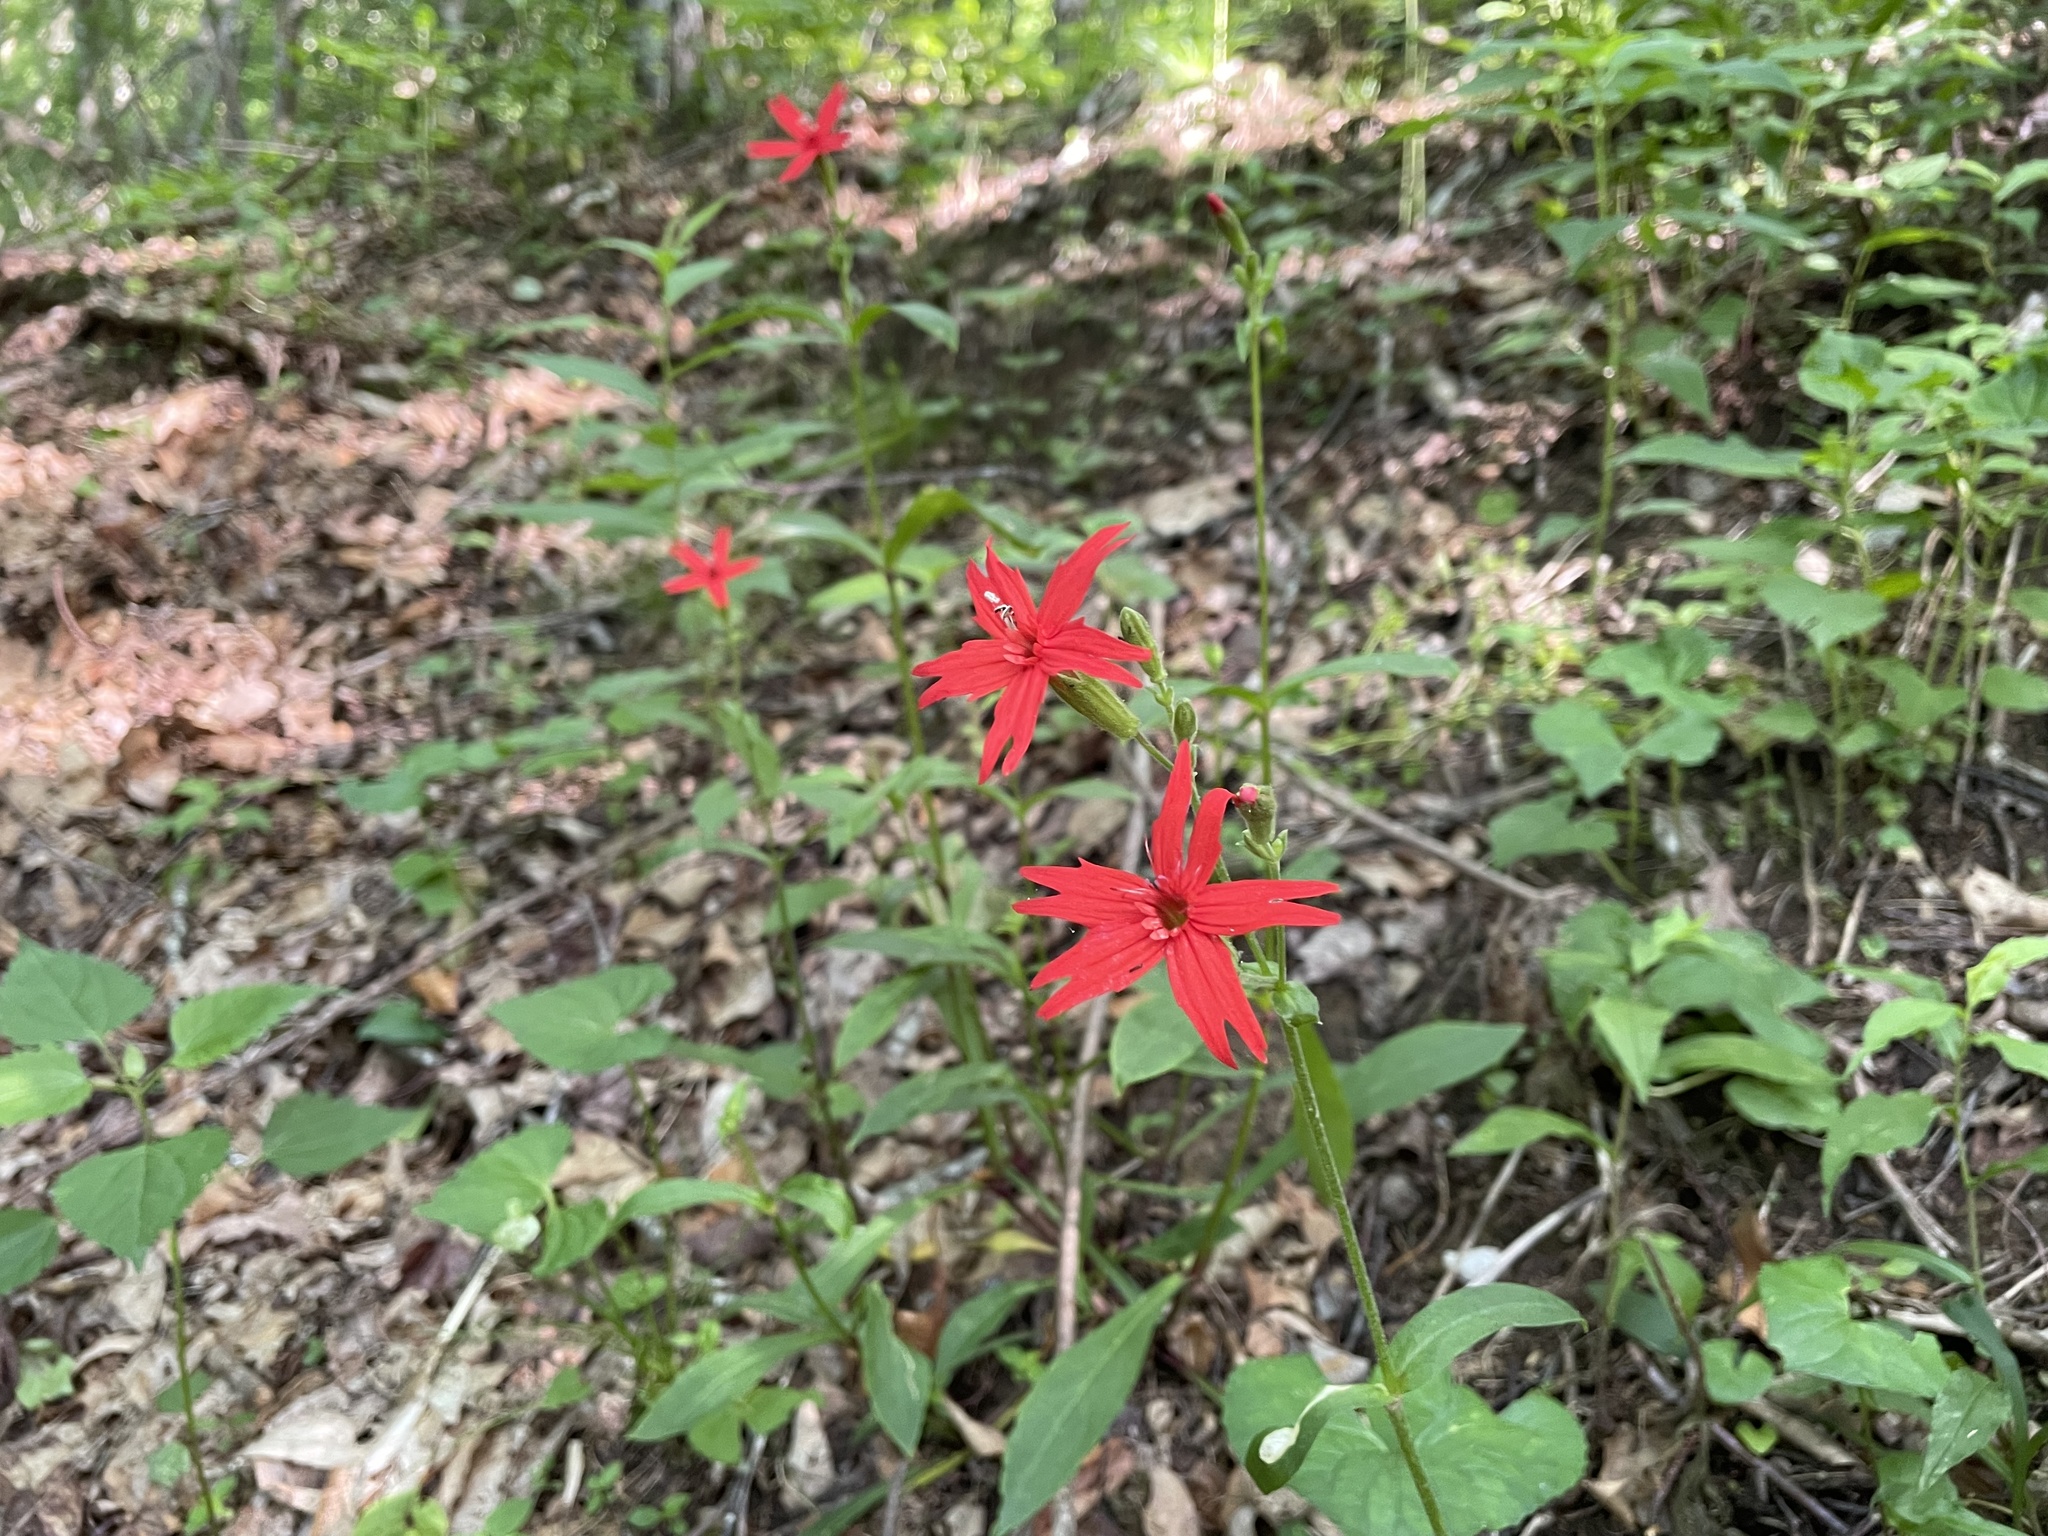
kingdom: Plantae
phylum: Tracheophyta
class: Magnoliopsida
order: Caryophyllales
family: Caryophyllaceae
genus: Silene
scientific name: Silene virginica
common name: Fire-pink
